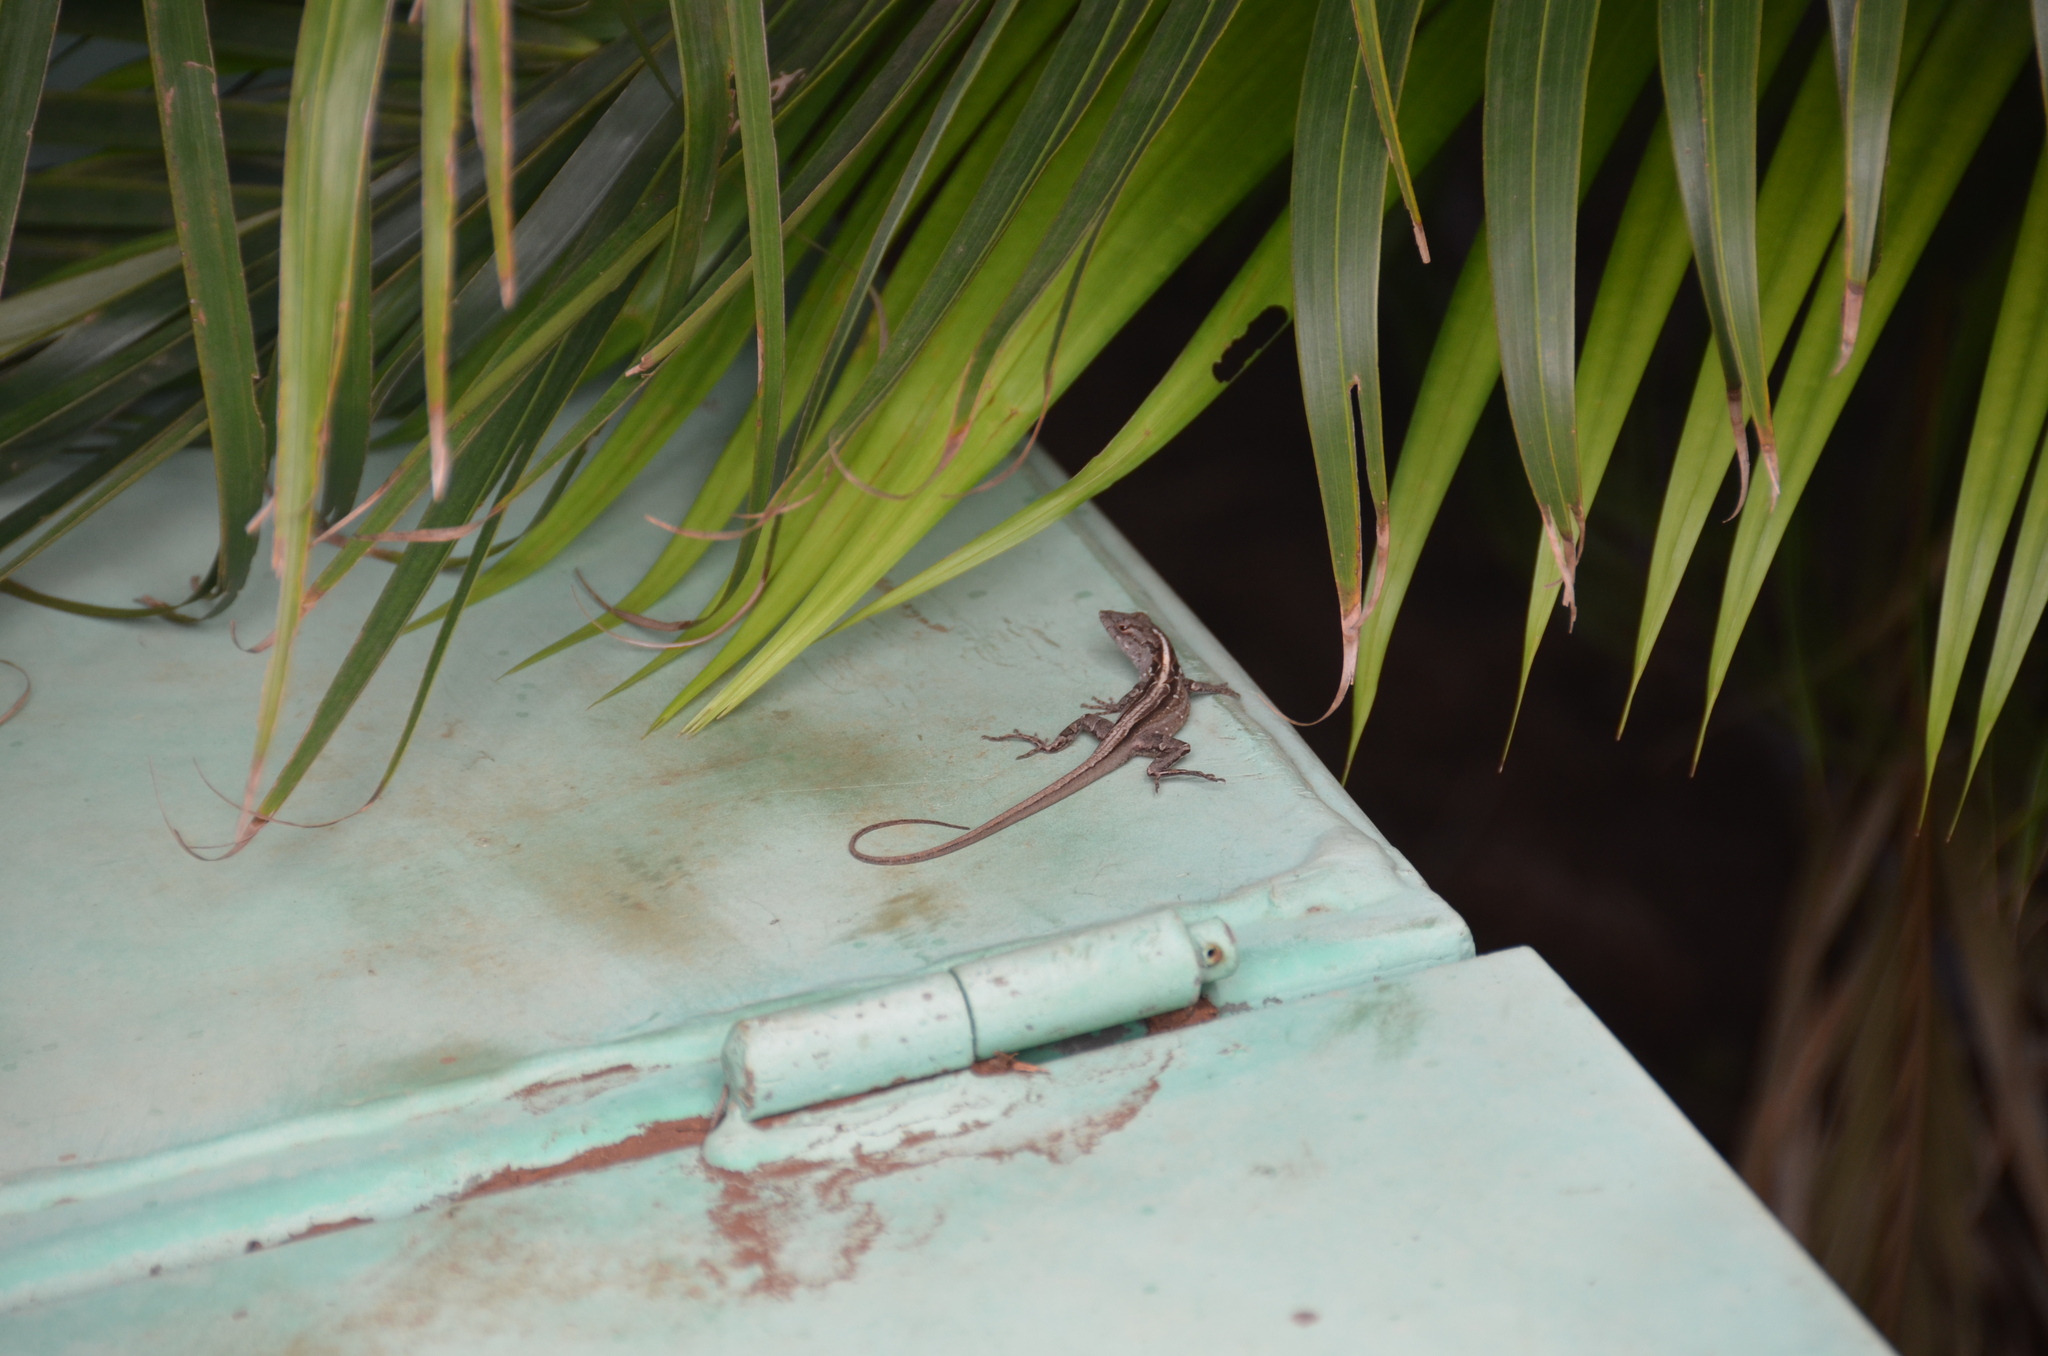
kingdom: Animalia
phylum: Chordata
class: Squamata
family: Dactyloidae
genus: Anolis
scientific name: Anolis sagrei
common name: Brown anole
